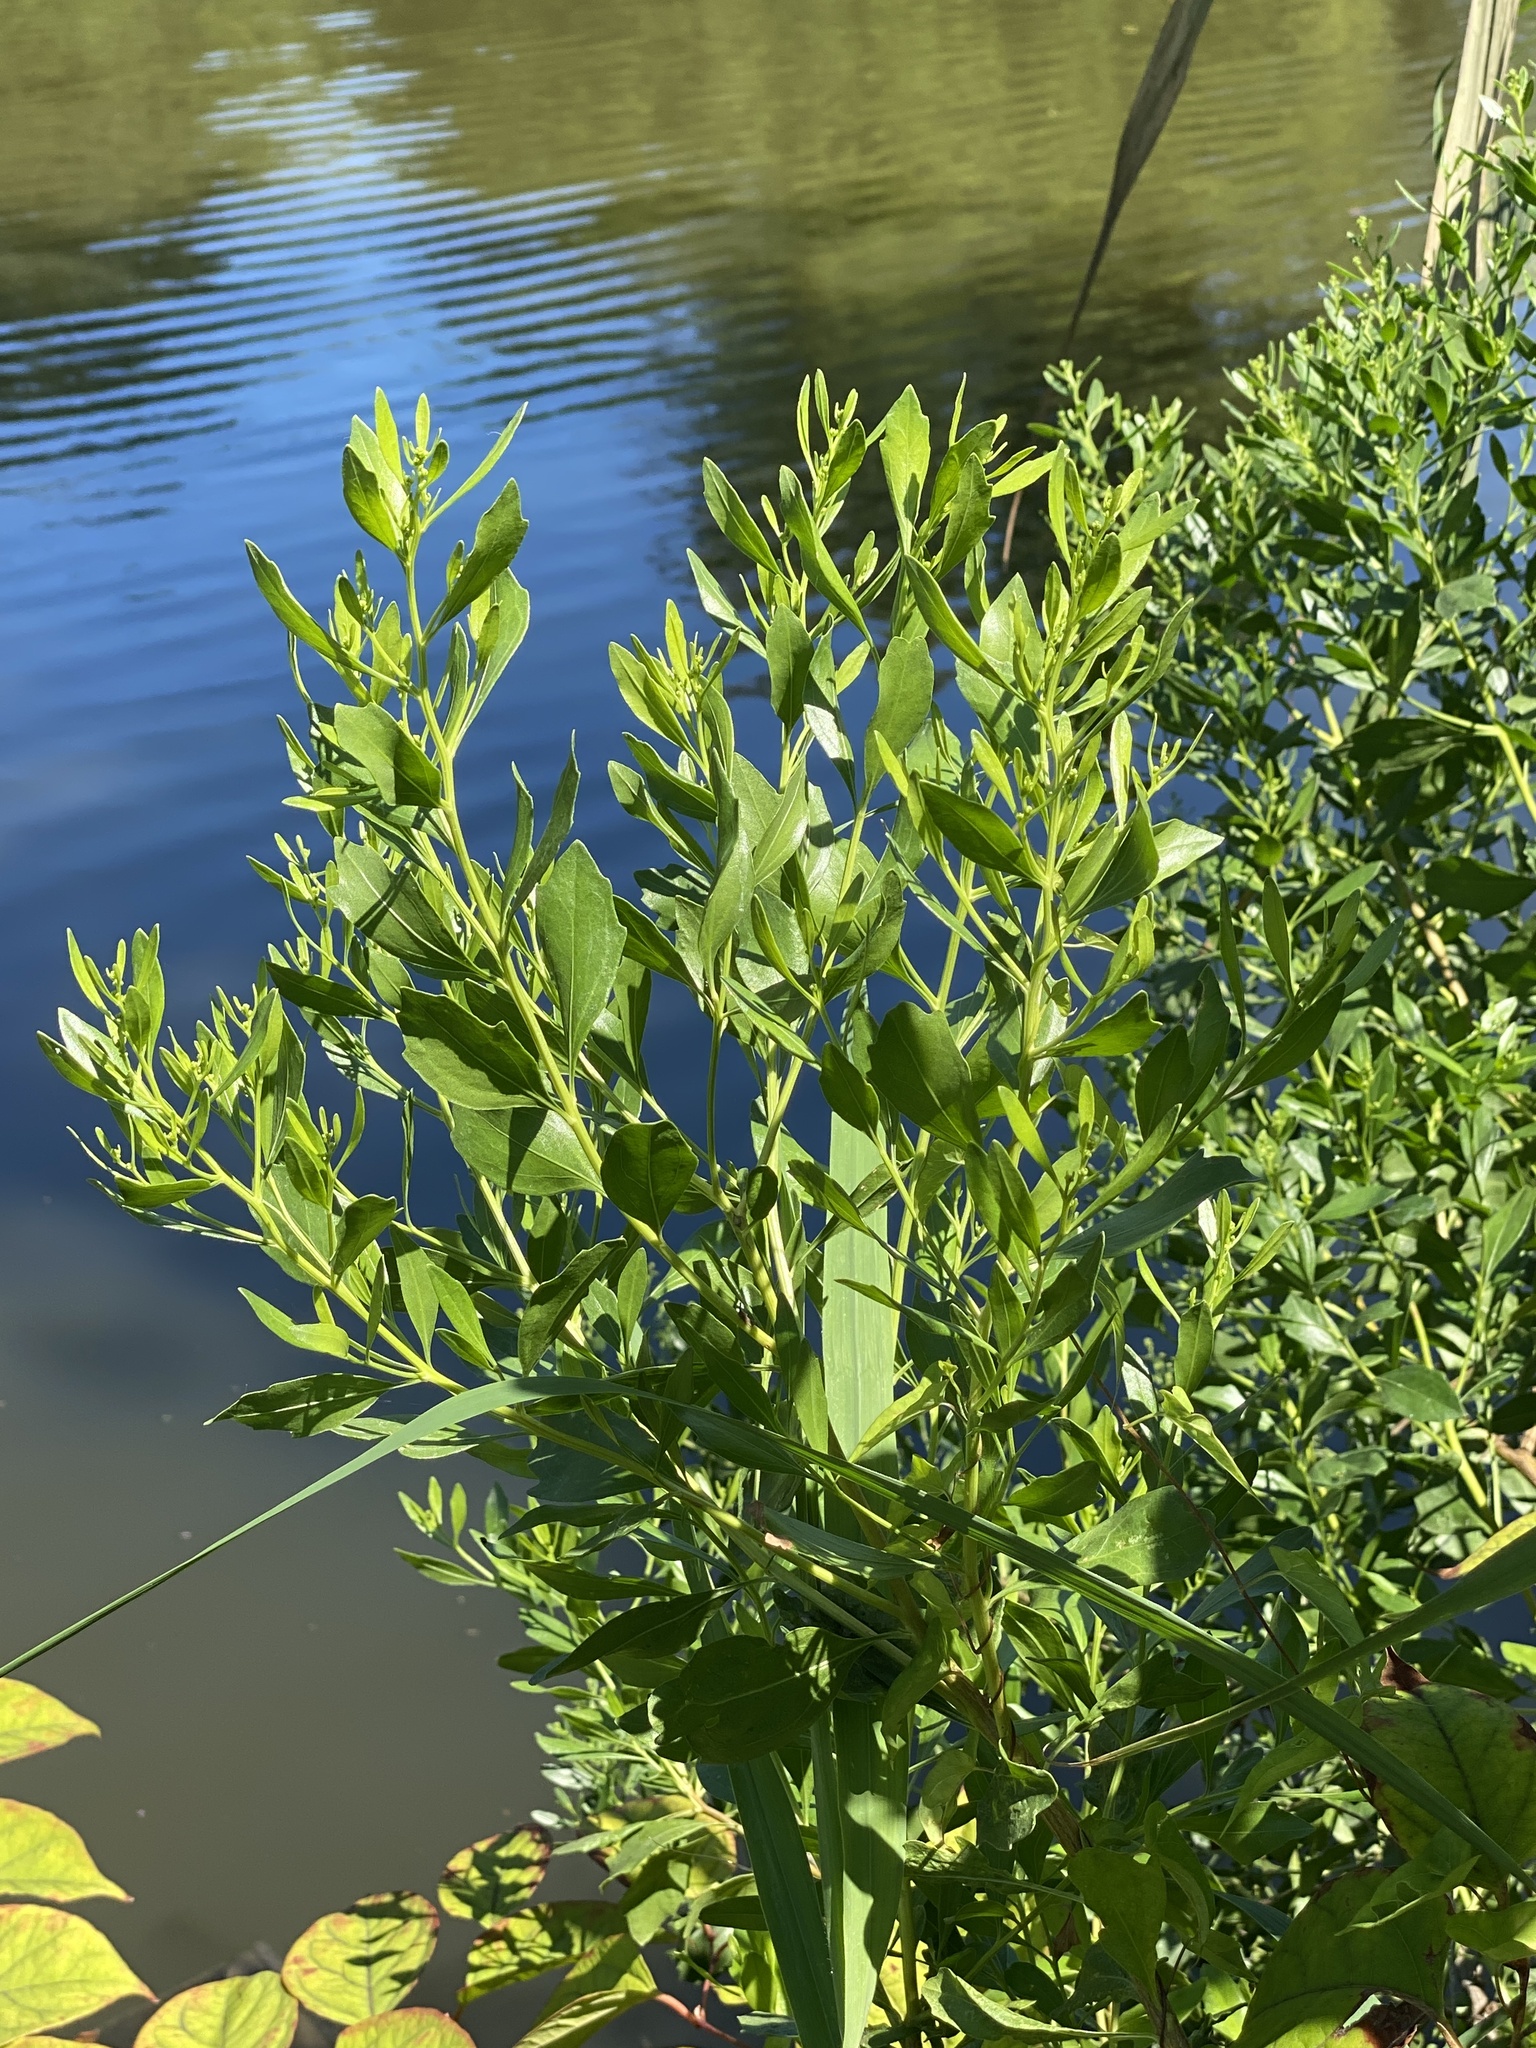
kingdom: Plantae
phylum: Tracheophyta
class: Magnoliopsida
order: Asterales
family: Asteraceae
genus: Baccharis
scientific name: Baccharis halimifolia
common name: Eastern baccharis
